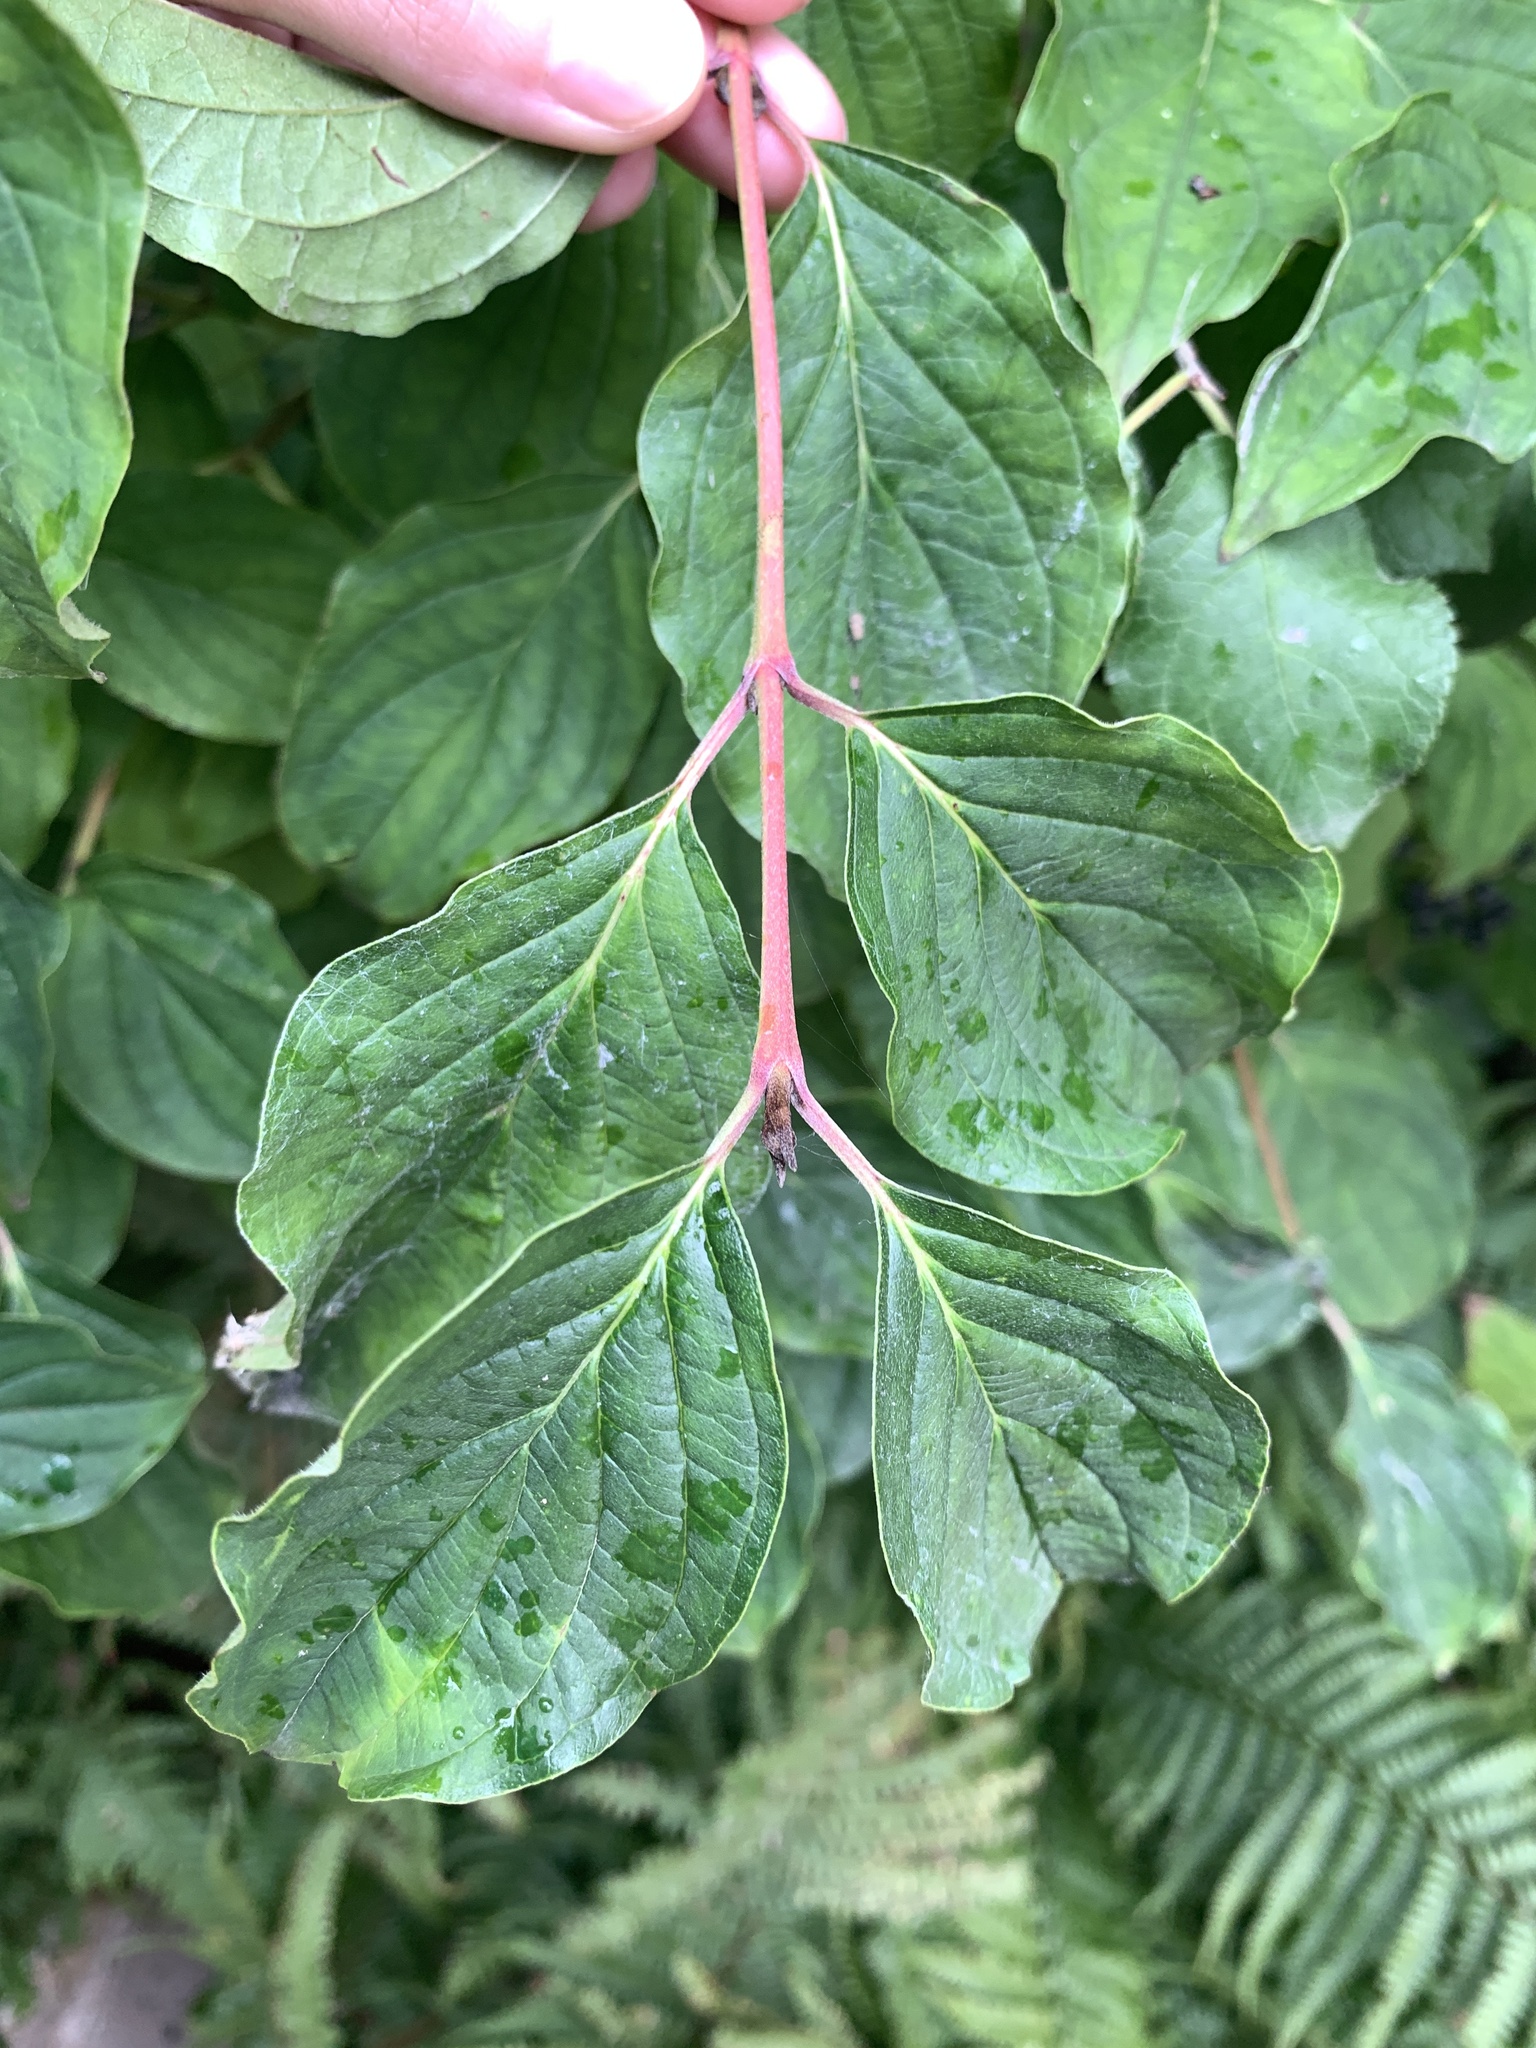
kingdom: Plantae
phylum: Tracheophyta
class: Magnoliopsida
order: Cornales
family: Cornaceae
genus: Cornus
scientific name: Cornus sanguinea
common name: Dogwood
